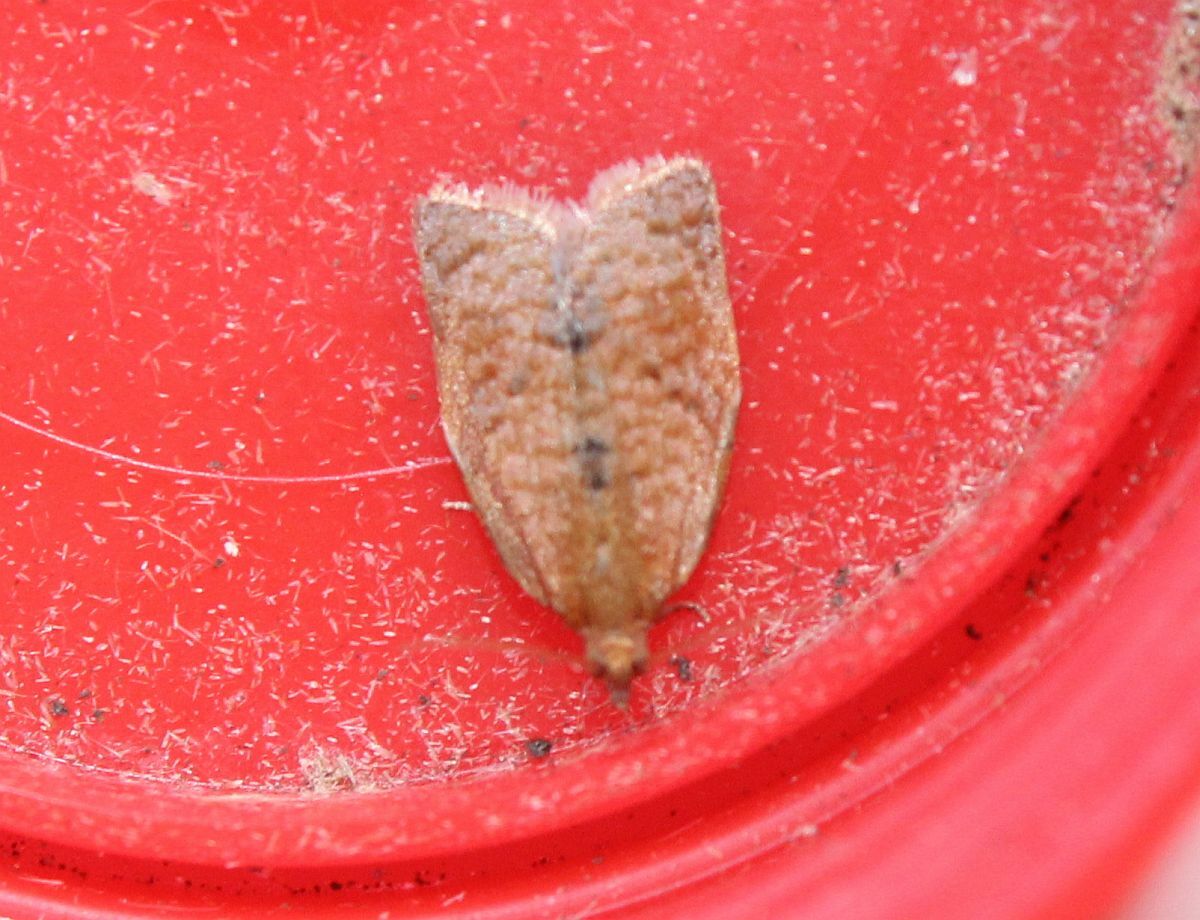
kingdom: Animalia
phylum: Arthropoda
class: Insecta
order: Lepidoptera
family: Tortricidae
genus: Clepsis
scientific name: Clepsis consimilana
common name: Privet tortrix
